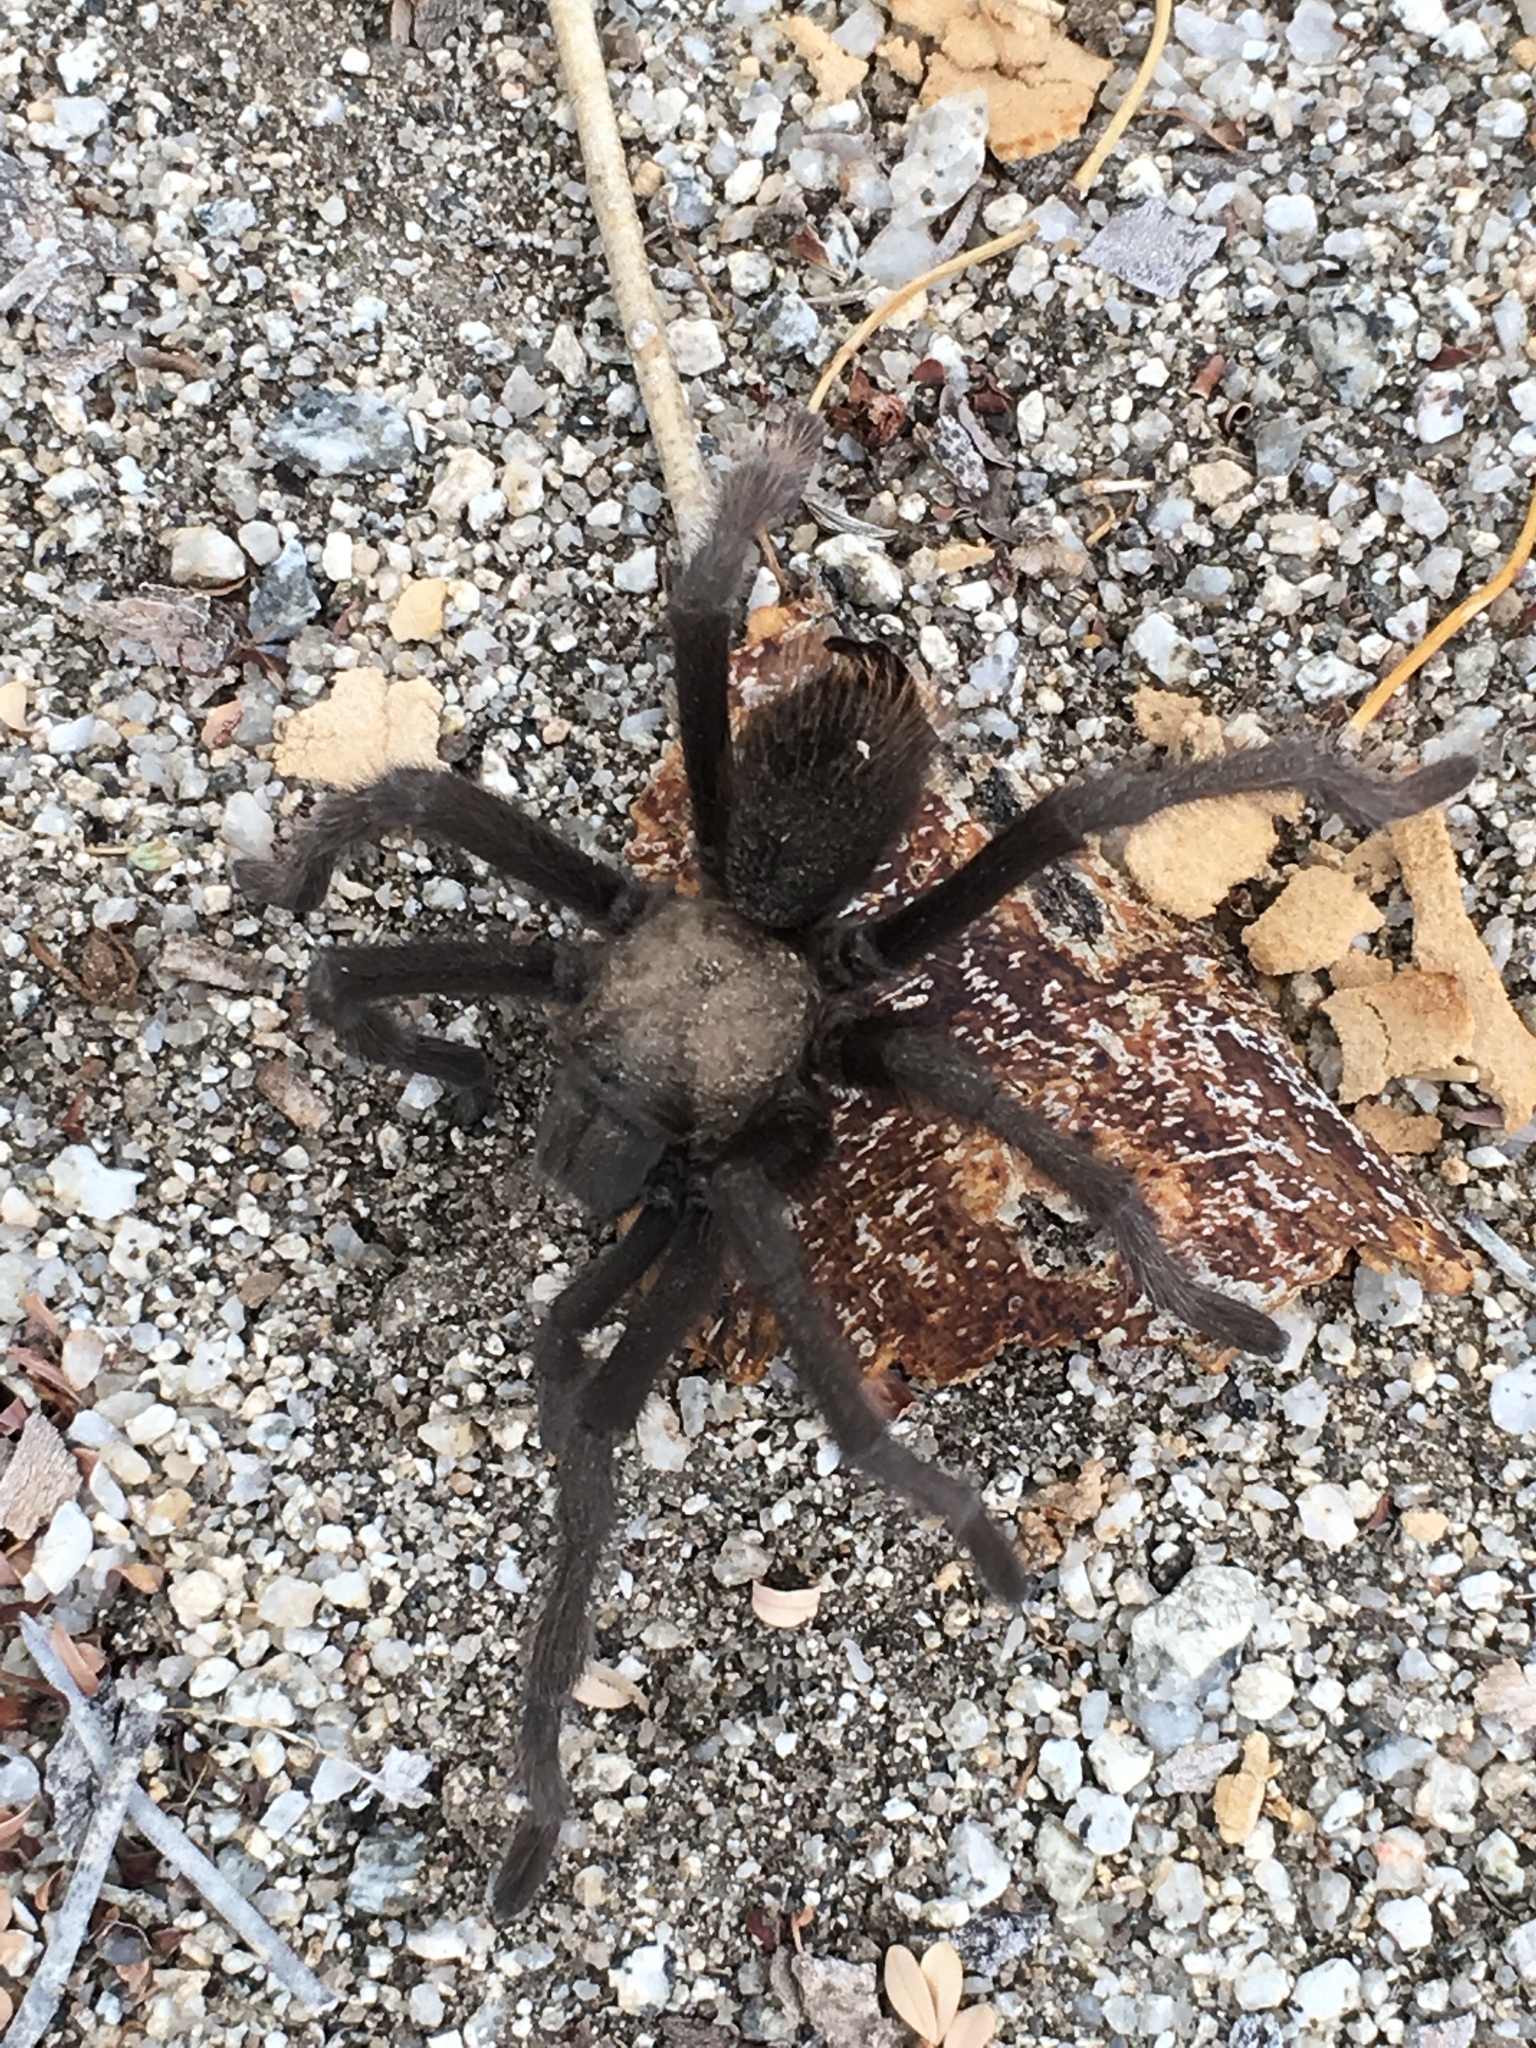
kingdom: Animalia
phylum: Arthropoda
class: Arachnida
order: Araneae
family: Theraphosidae
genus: Aphonopelma
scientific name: Aphonopelma eutylenum
